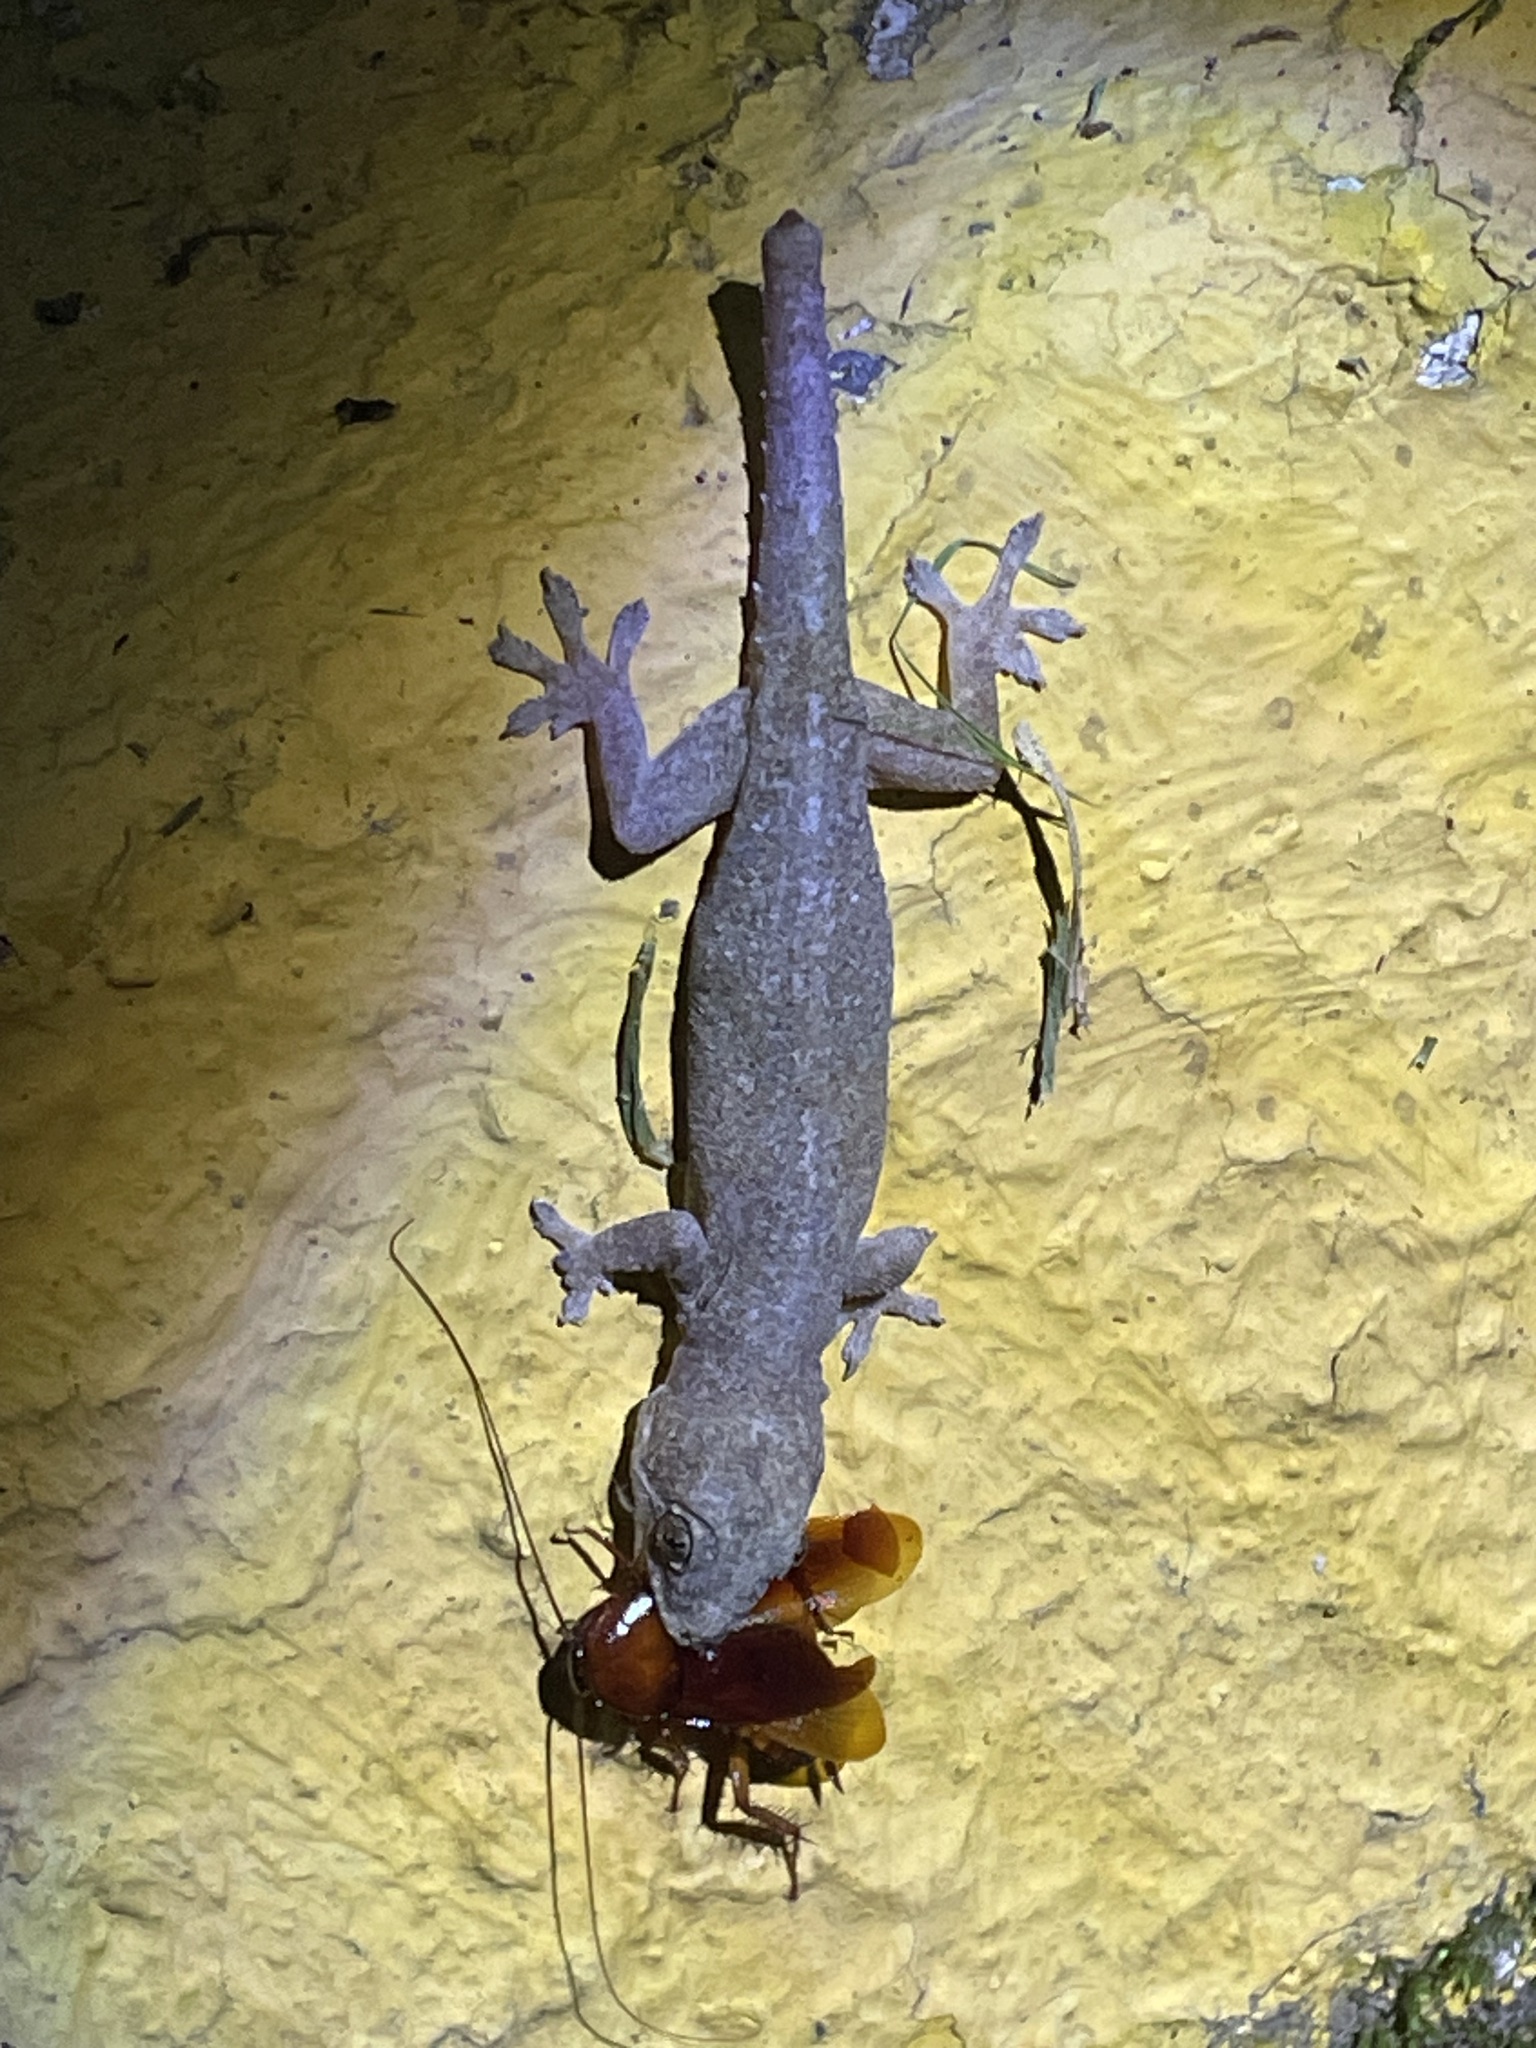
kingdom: Animalia
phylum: Chordata
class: Squamata
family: Gekkonidae
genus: Hemidactylus
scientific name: Hemidactylus frenatus
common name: Common house gecko
